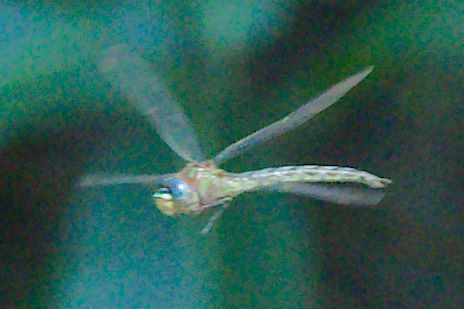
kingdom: Animalia
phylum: Arthropoda
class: Insecta
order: Odonata
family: Aeshnidae
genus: Nasiaeschna
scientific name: Nasiaeschna pentacantha
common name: Cyrano darner
